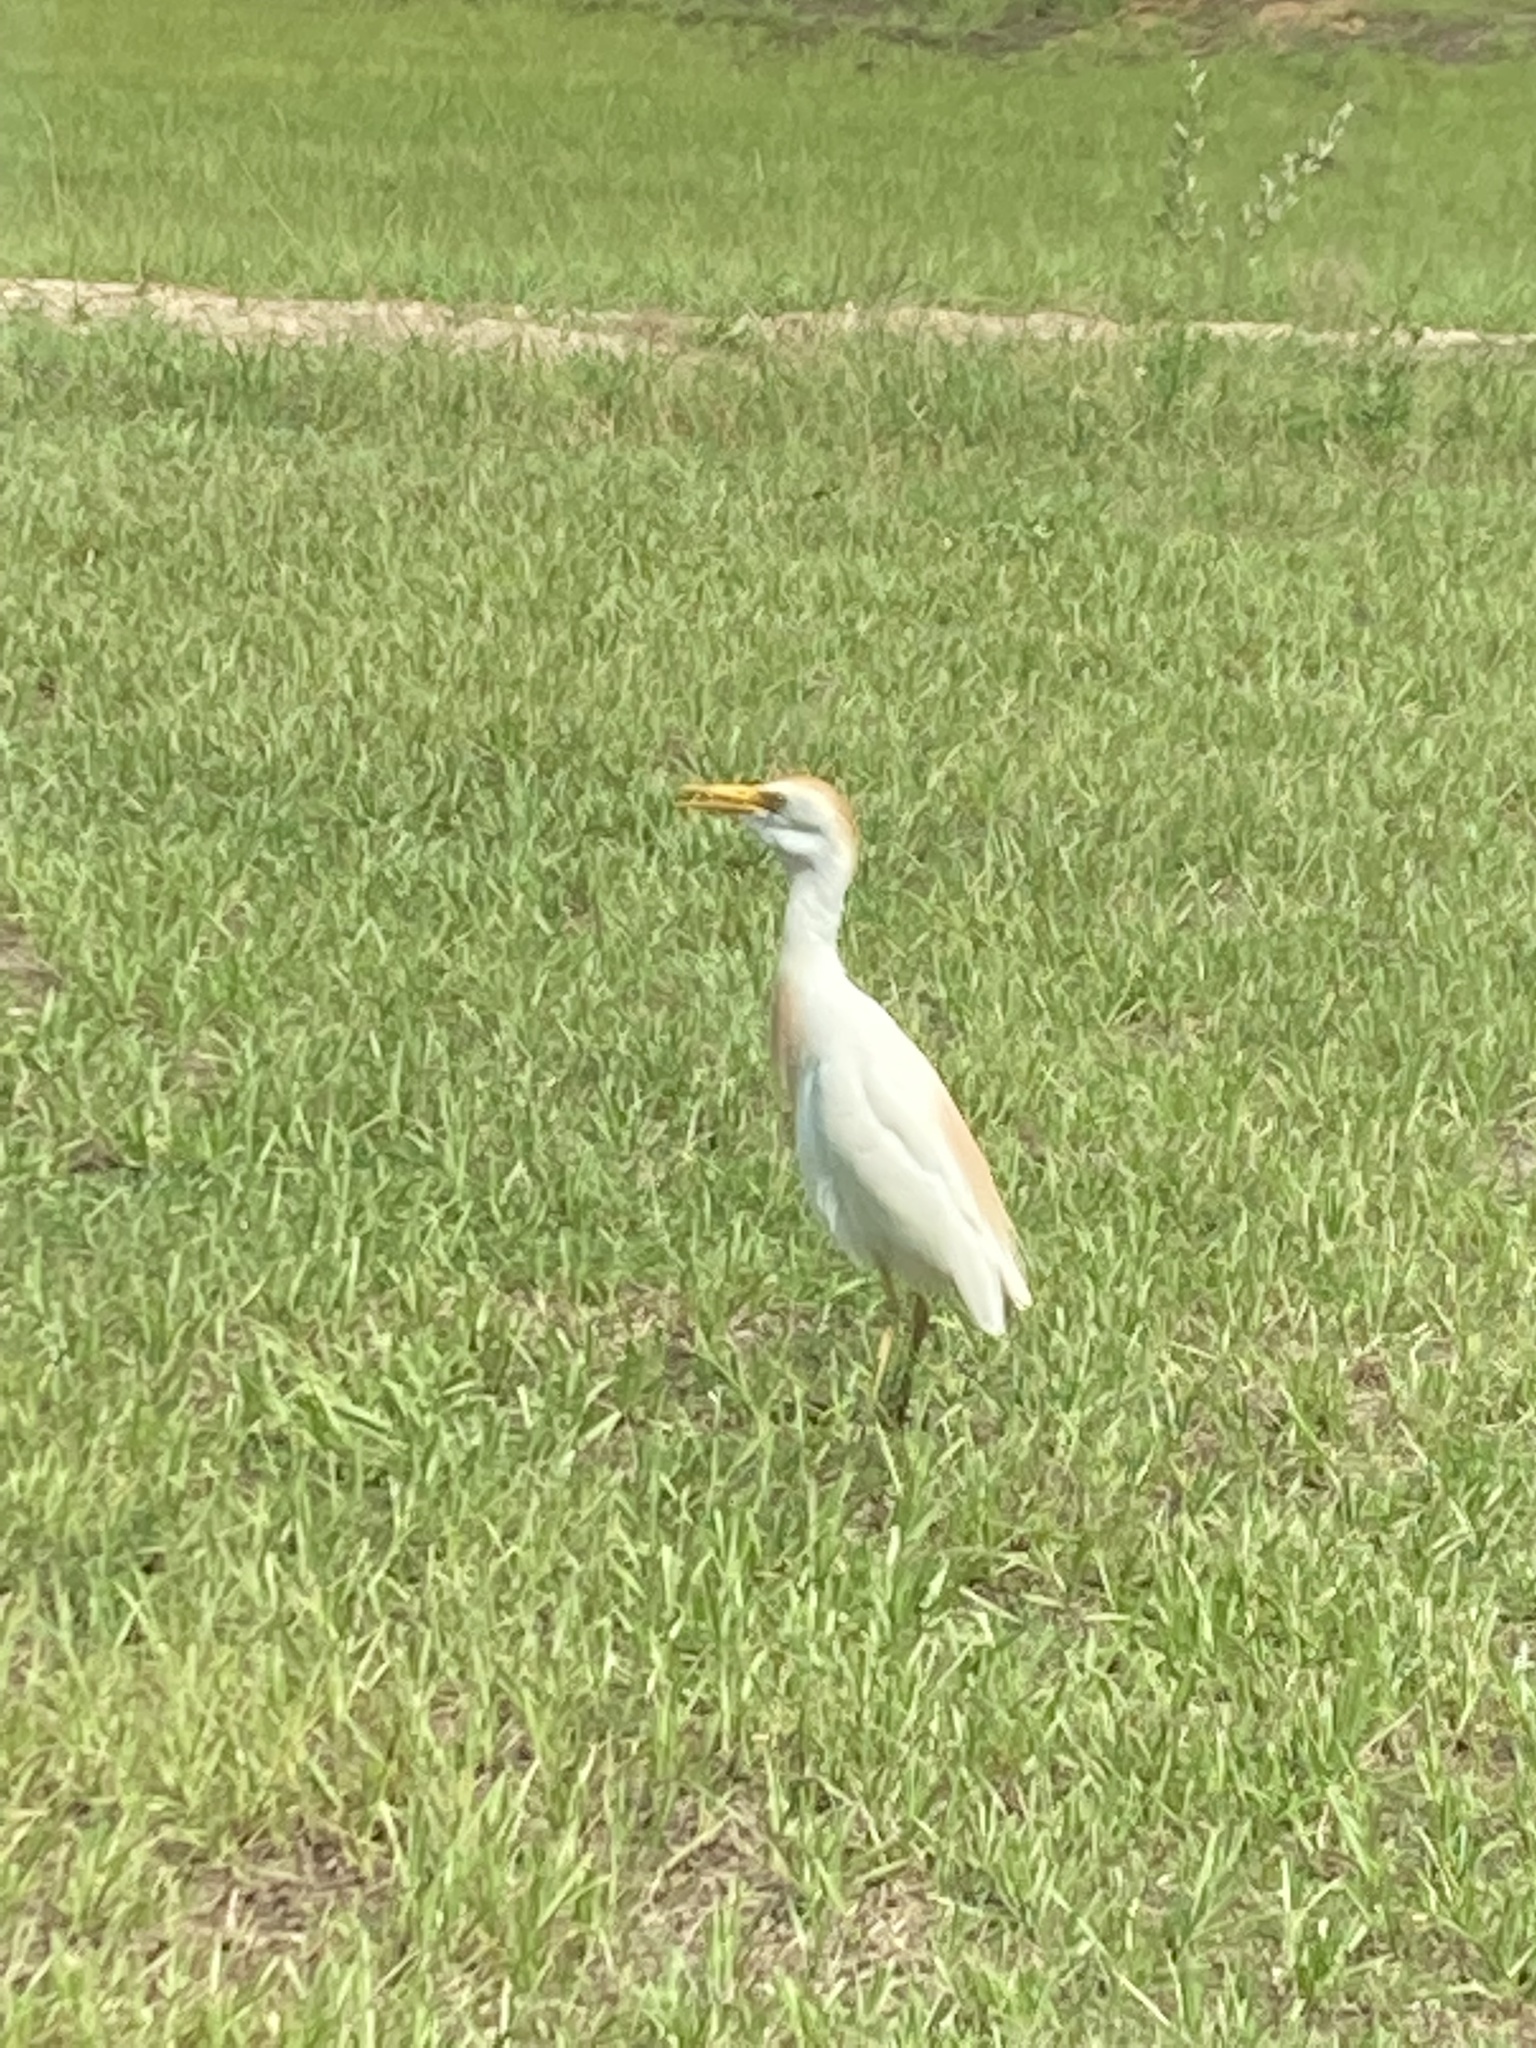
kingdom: Animalia
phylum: Chordata
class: Aves
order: Pelecaniformes
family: Ardeidae
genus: Bubulcus
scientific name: Bubulcus ibis
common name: Cattle egret
